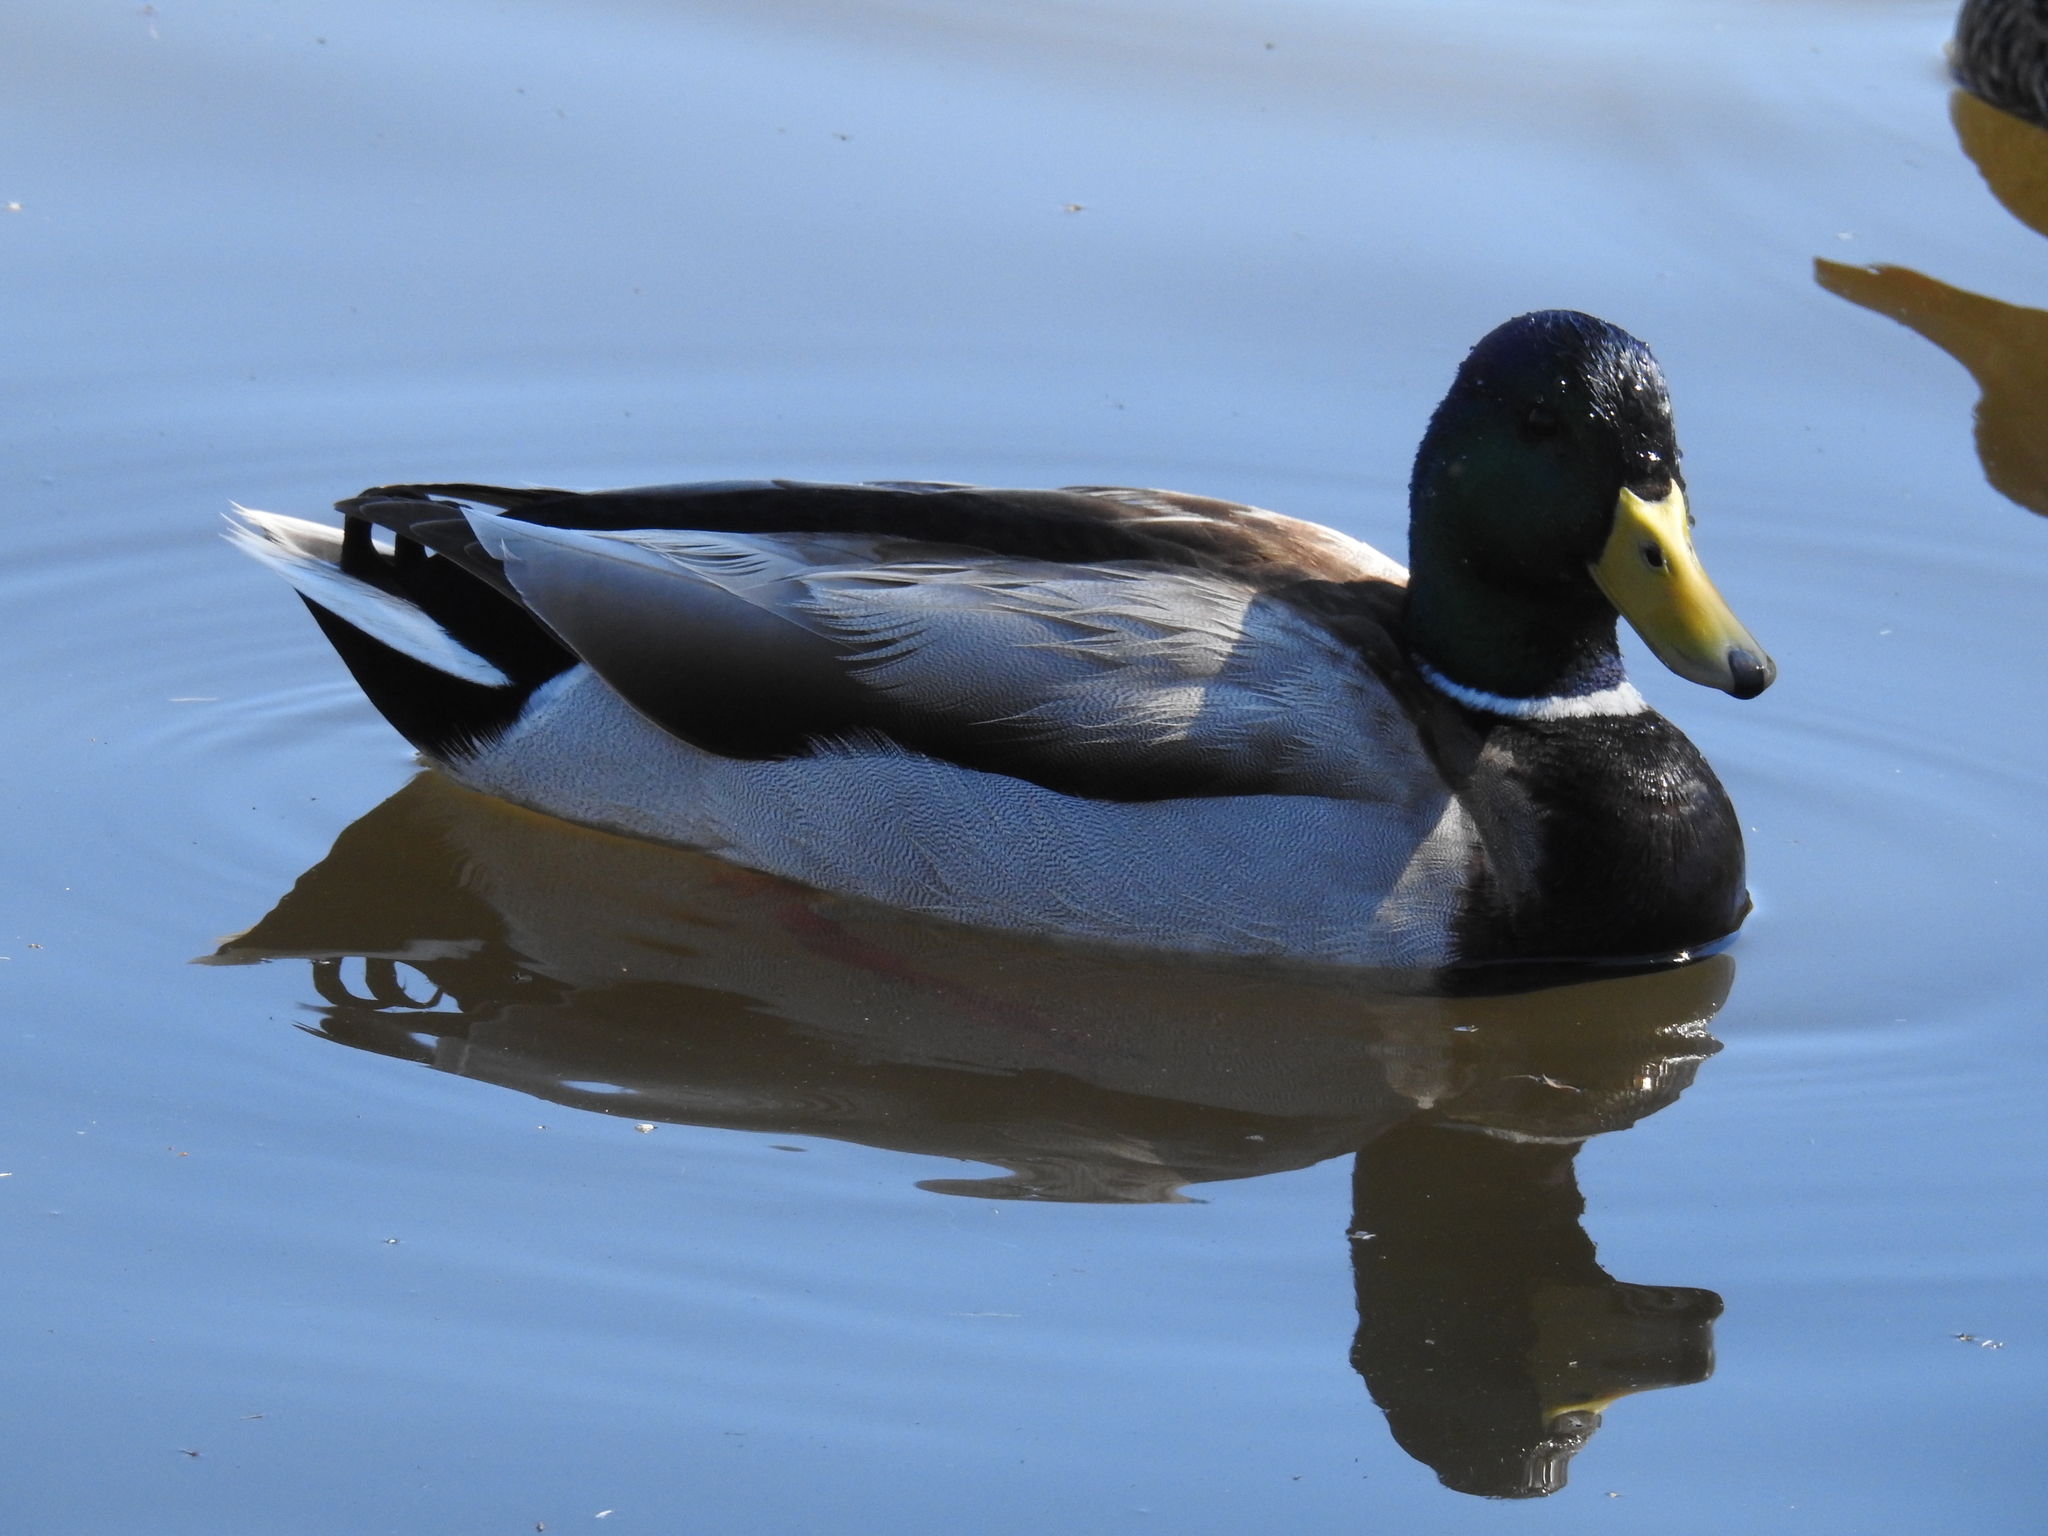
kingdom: Animalia
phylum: Chordata
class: Aves
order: Anseriformes
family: Anatidae
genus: Anas
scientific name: Anas platyrhynchos
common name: Mallard
